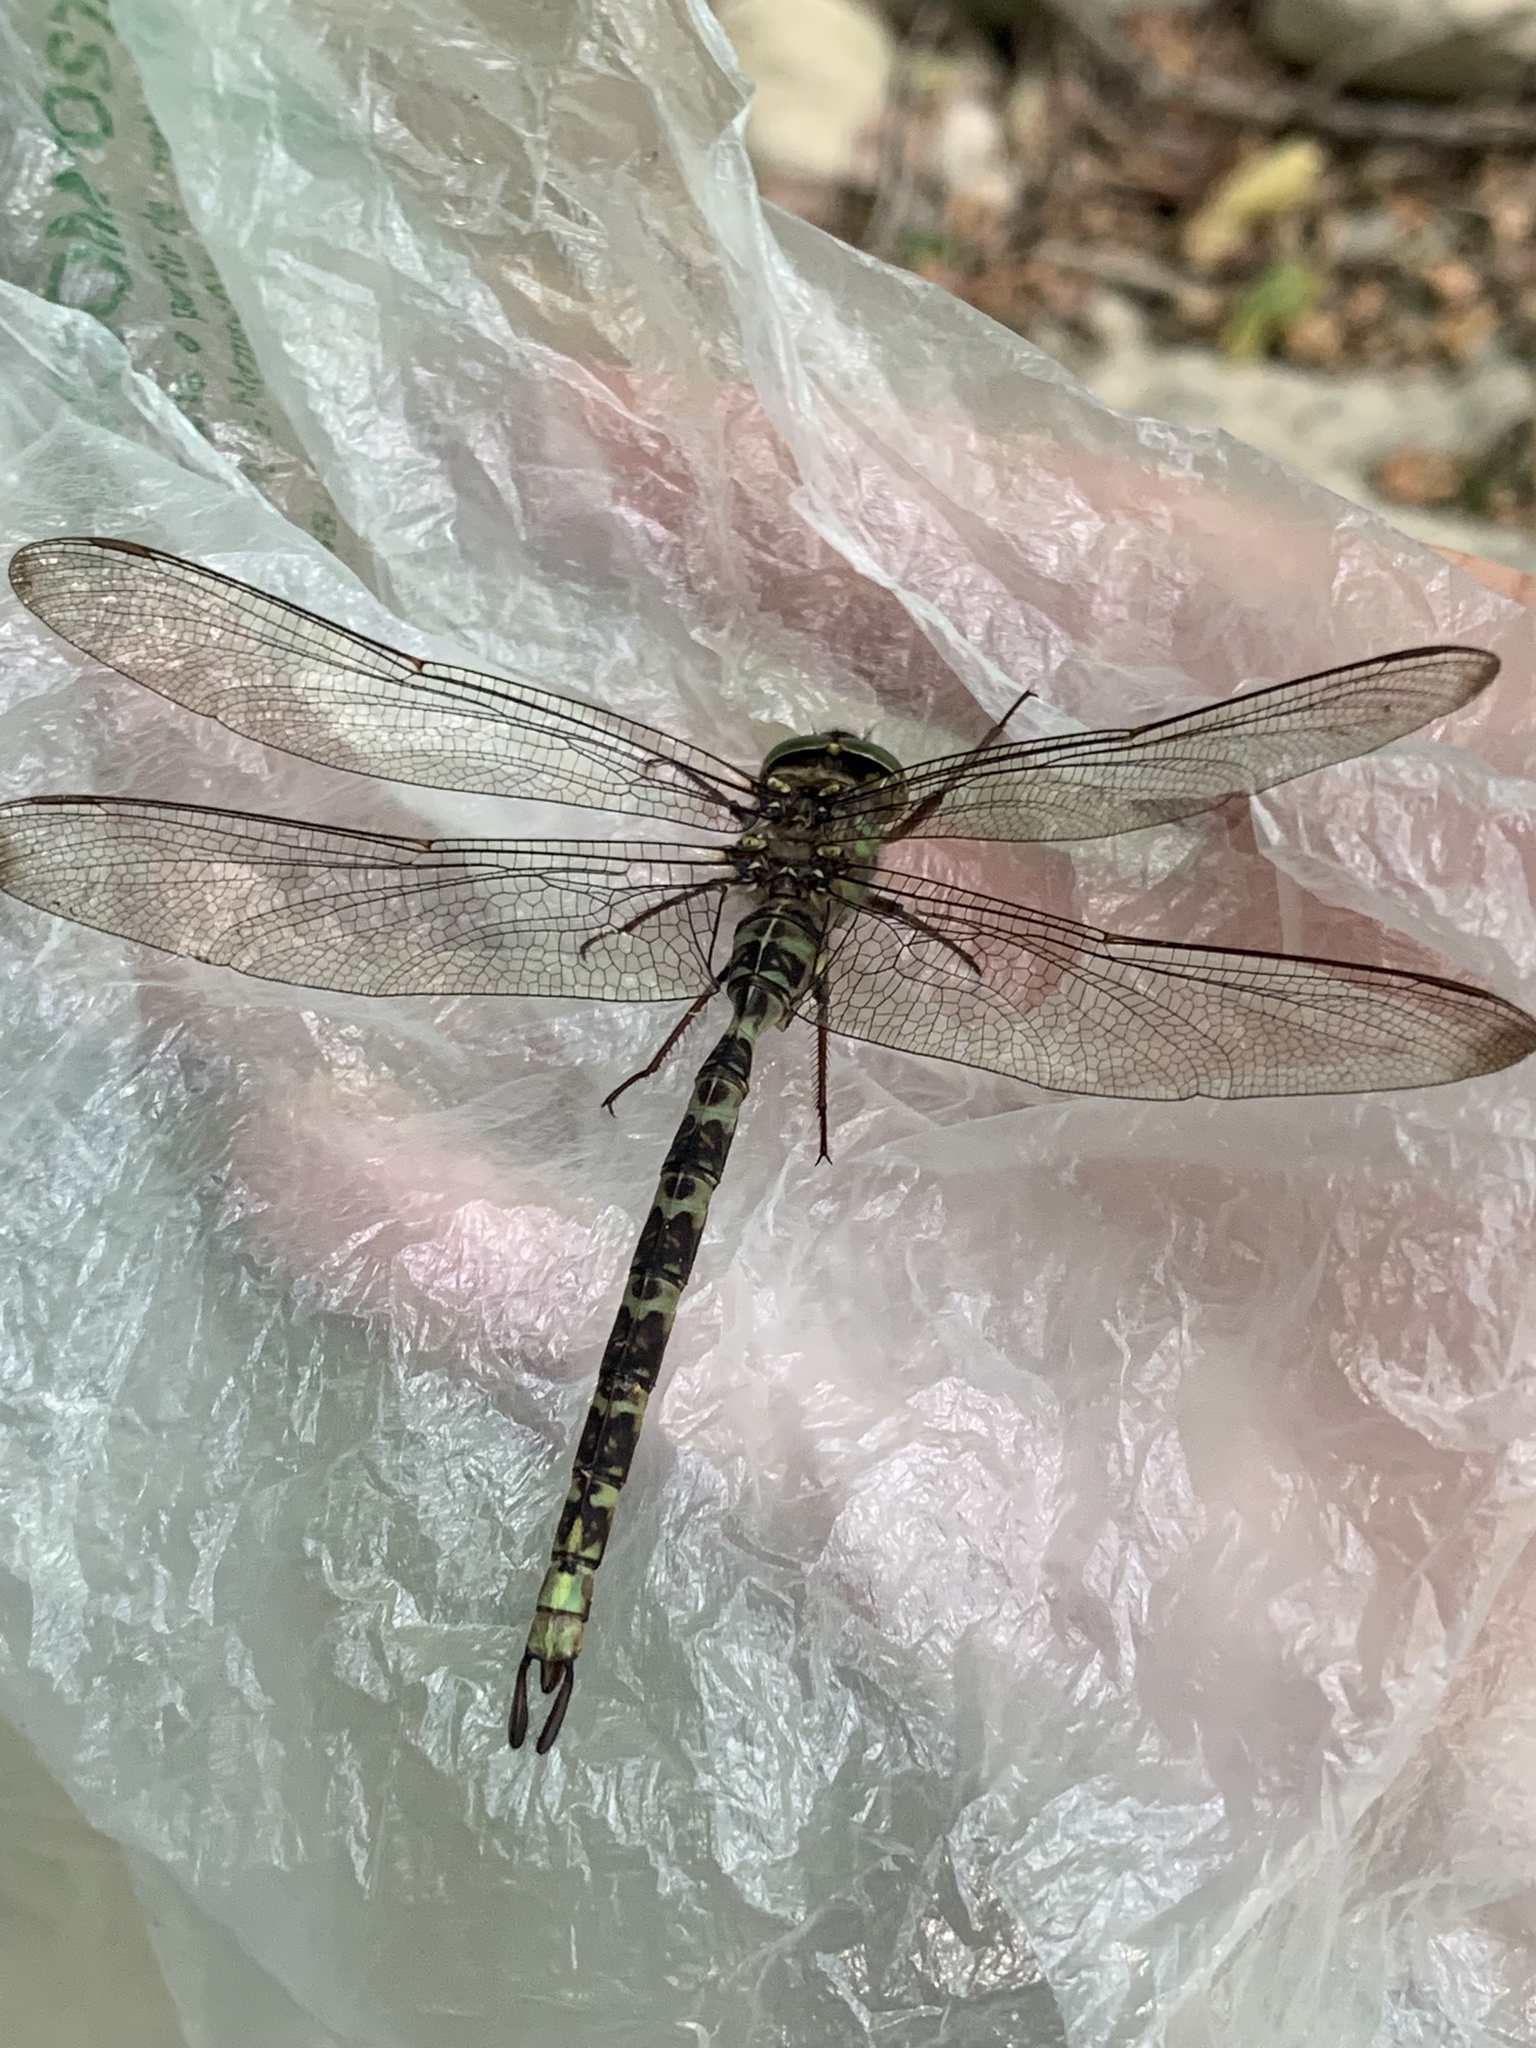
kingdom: Animalia
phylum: Arthropoda
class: Insecta
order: Odonata
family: Aeshnidae
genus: Boyeria
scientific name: Boyeria irene
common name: Western spectre
